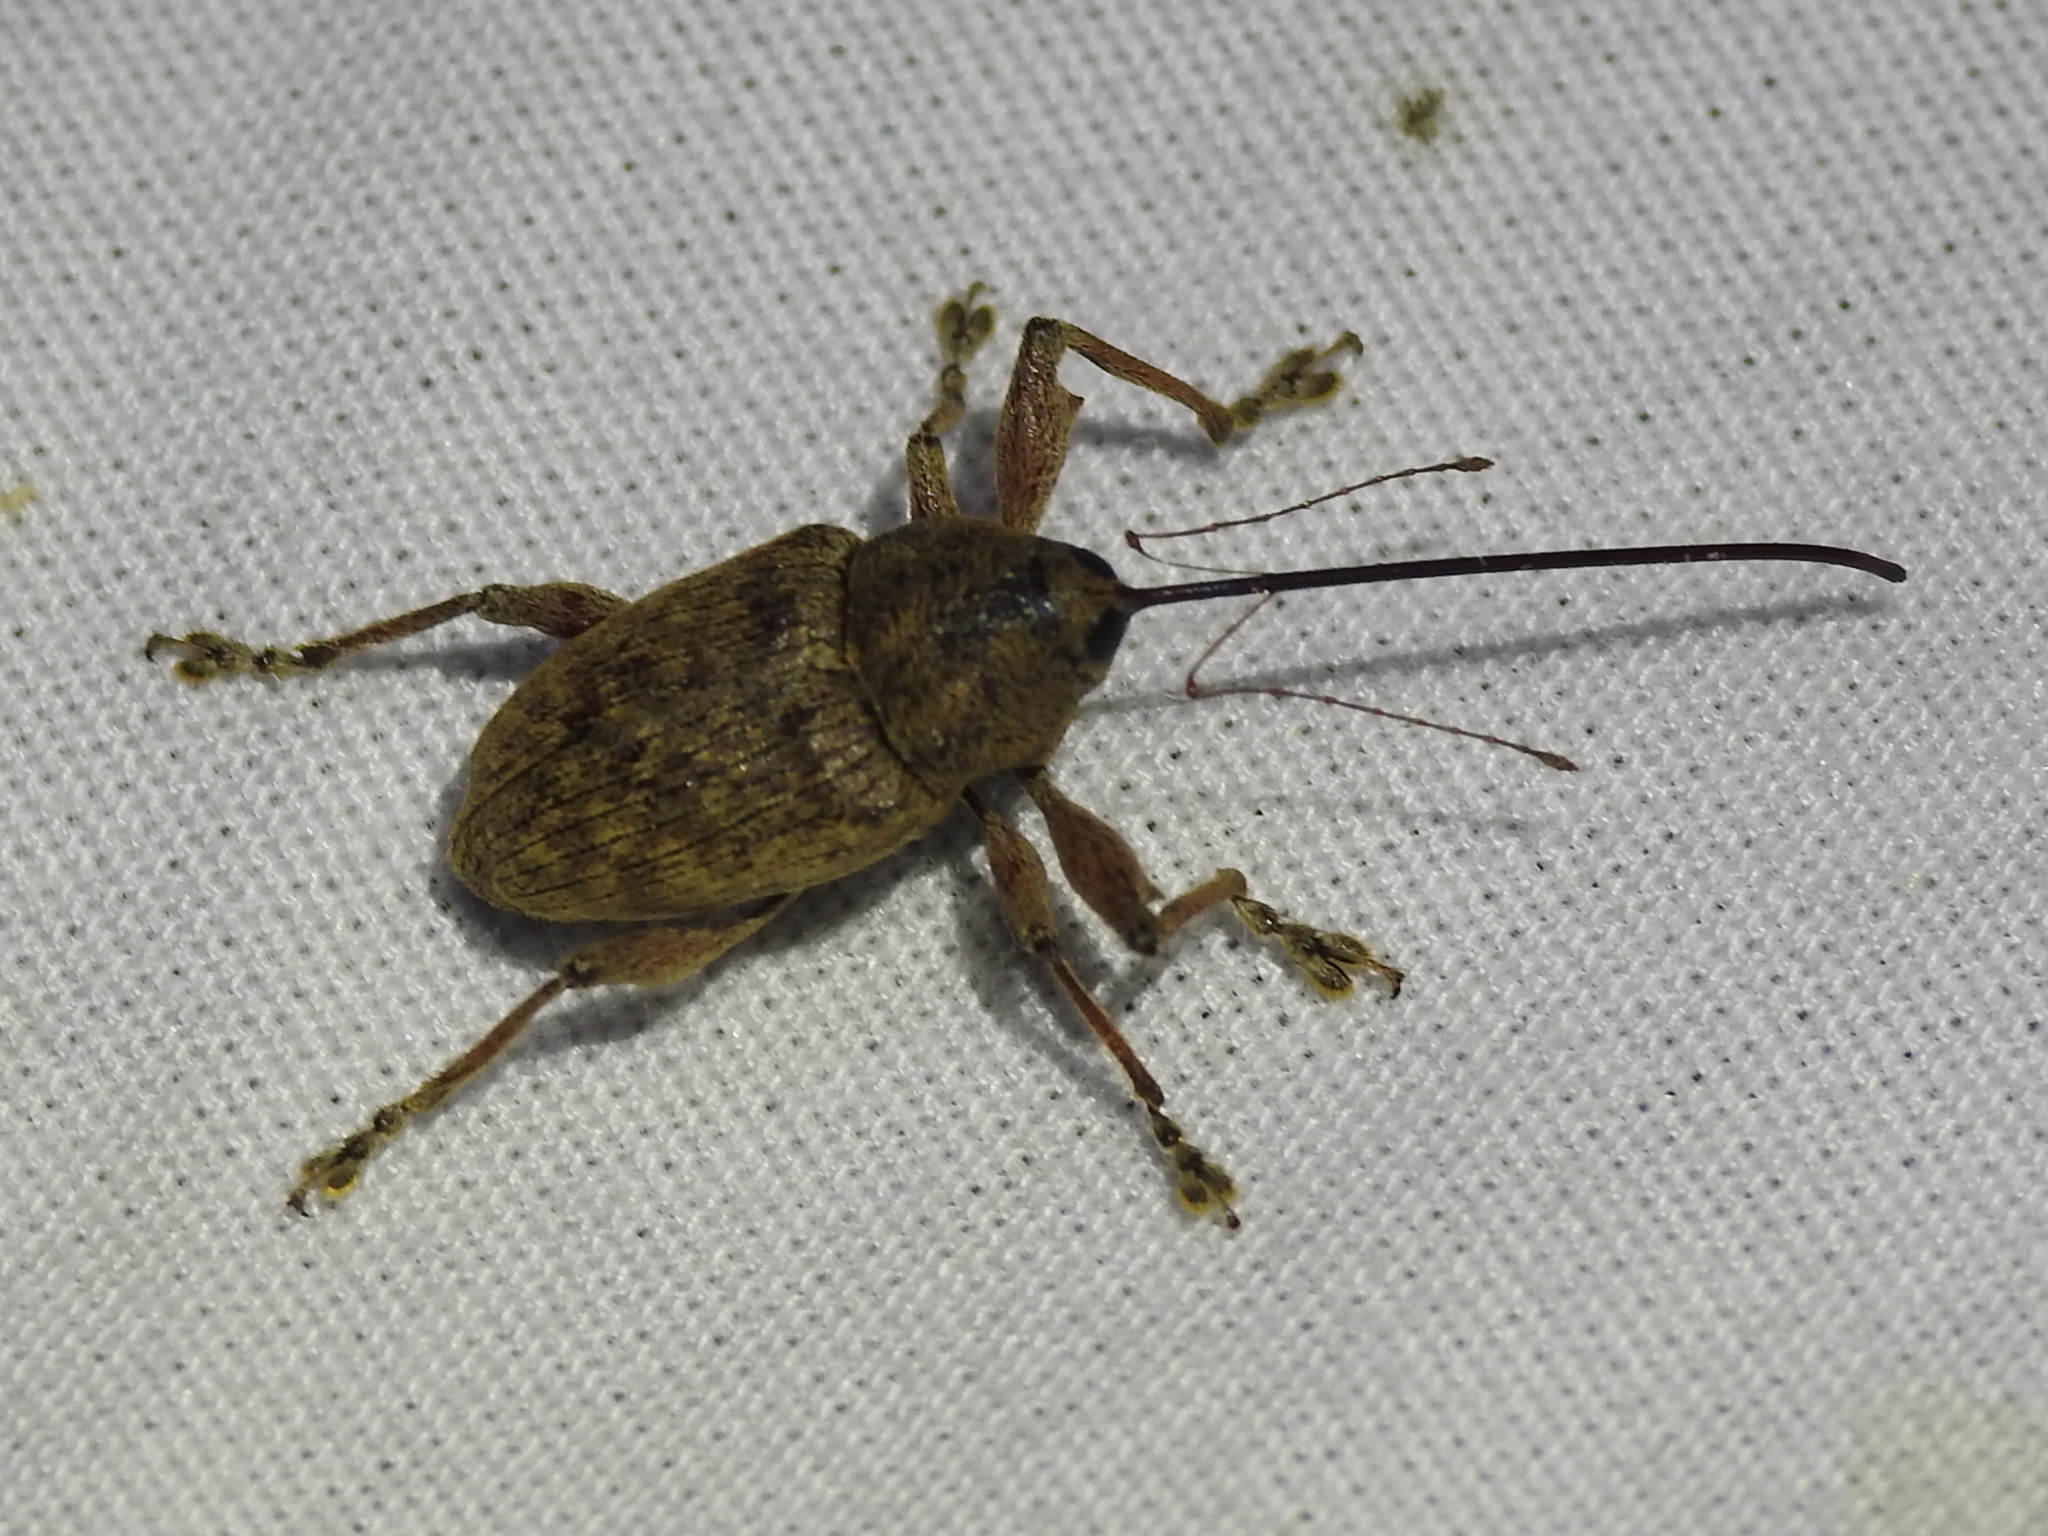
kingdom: Animalia
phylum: Arthropoda
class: Insecta
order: Coleoptera
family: Curculionidae
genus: Curculio
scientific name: Curculio
